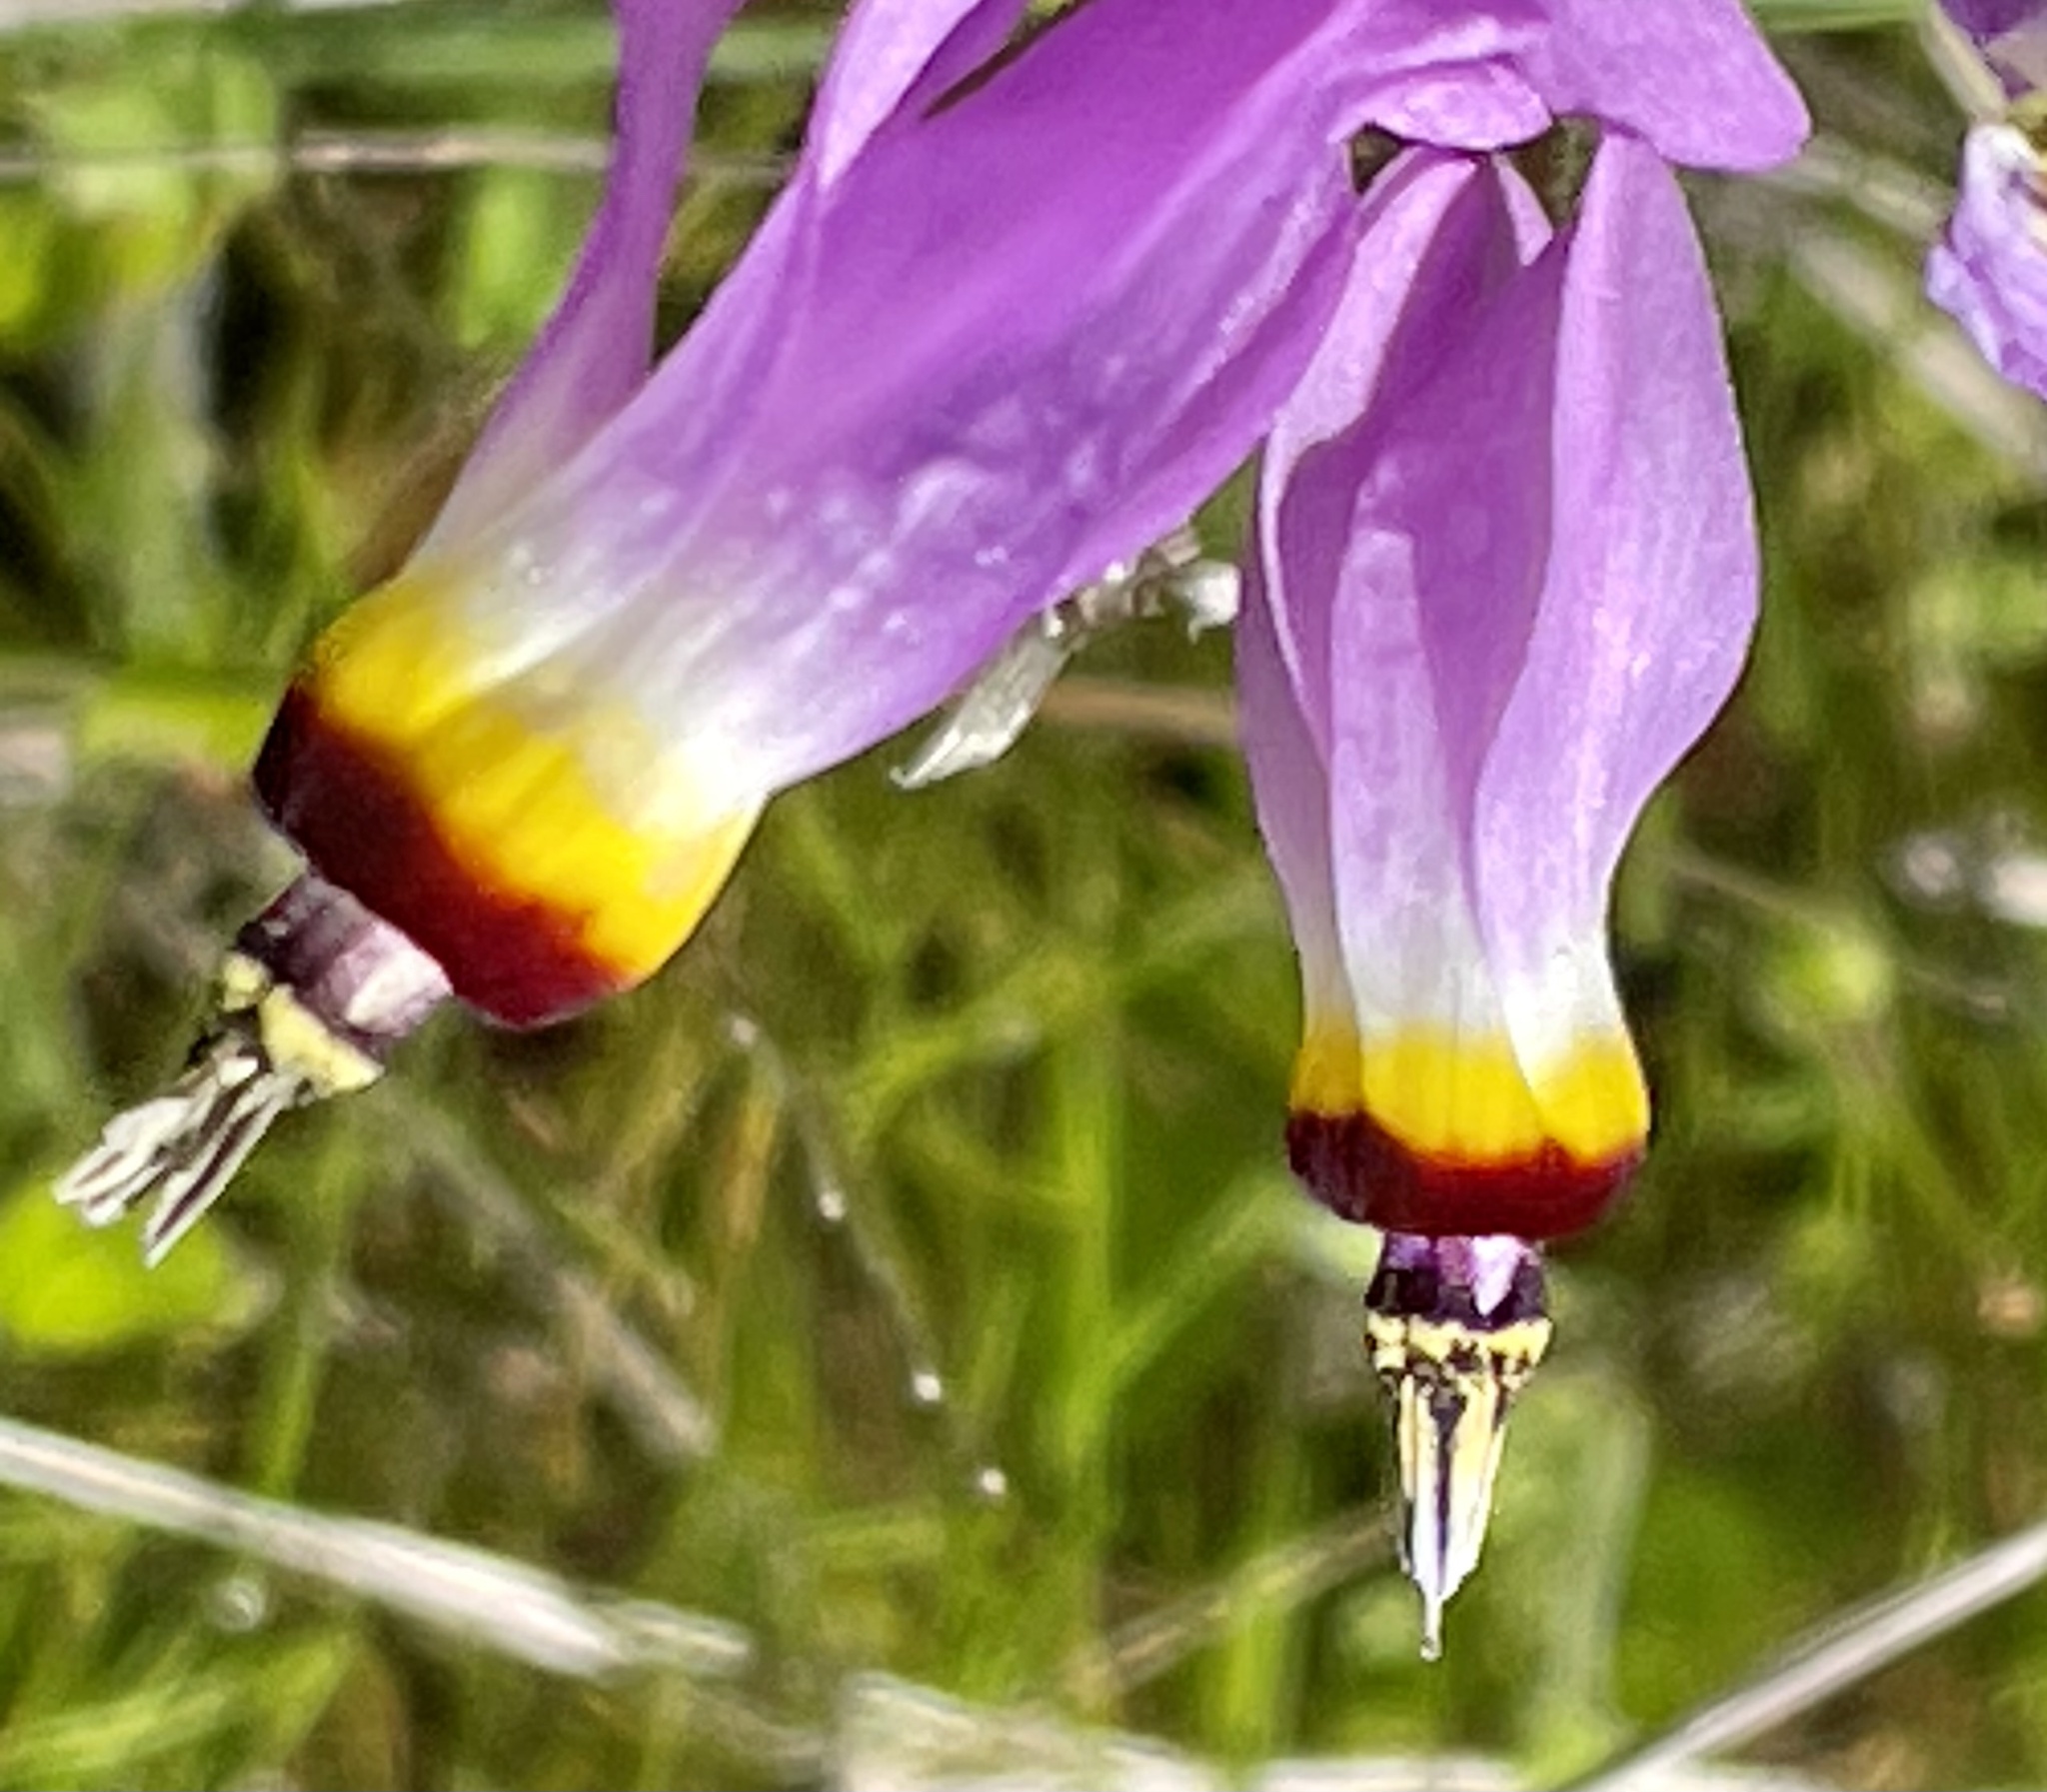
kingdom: Plantae
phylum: Tracheophyta
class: Magnoliopsida
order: Ericales
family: Primulaceae
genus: Dodecatheon
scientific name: Dodecatheon clevelandii
